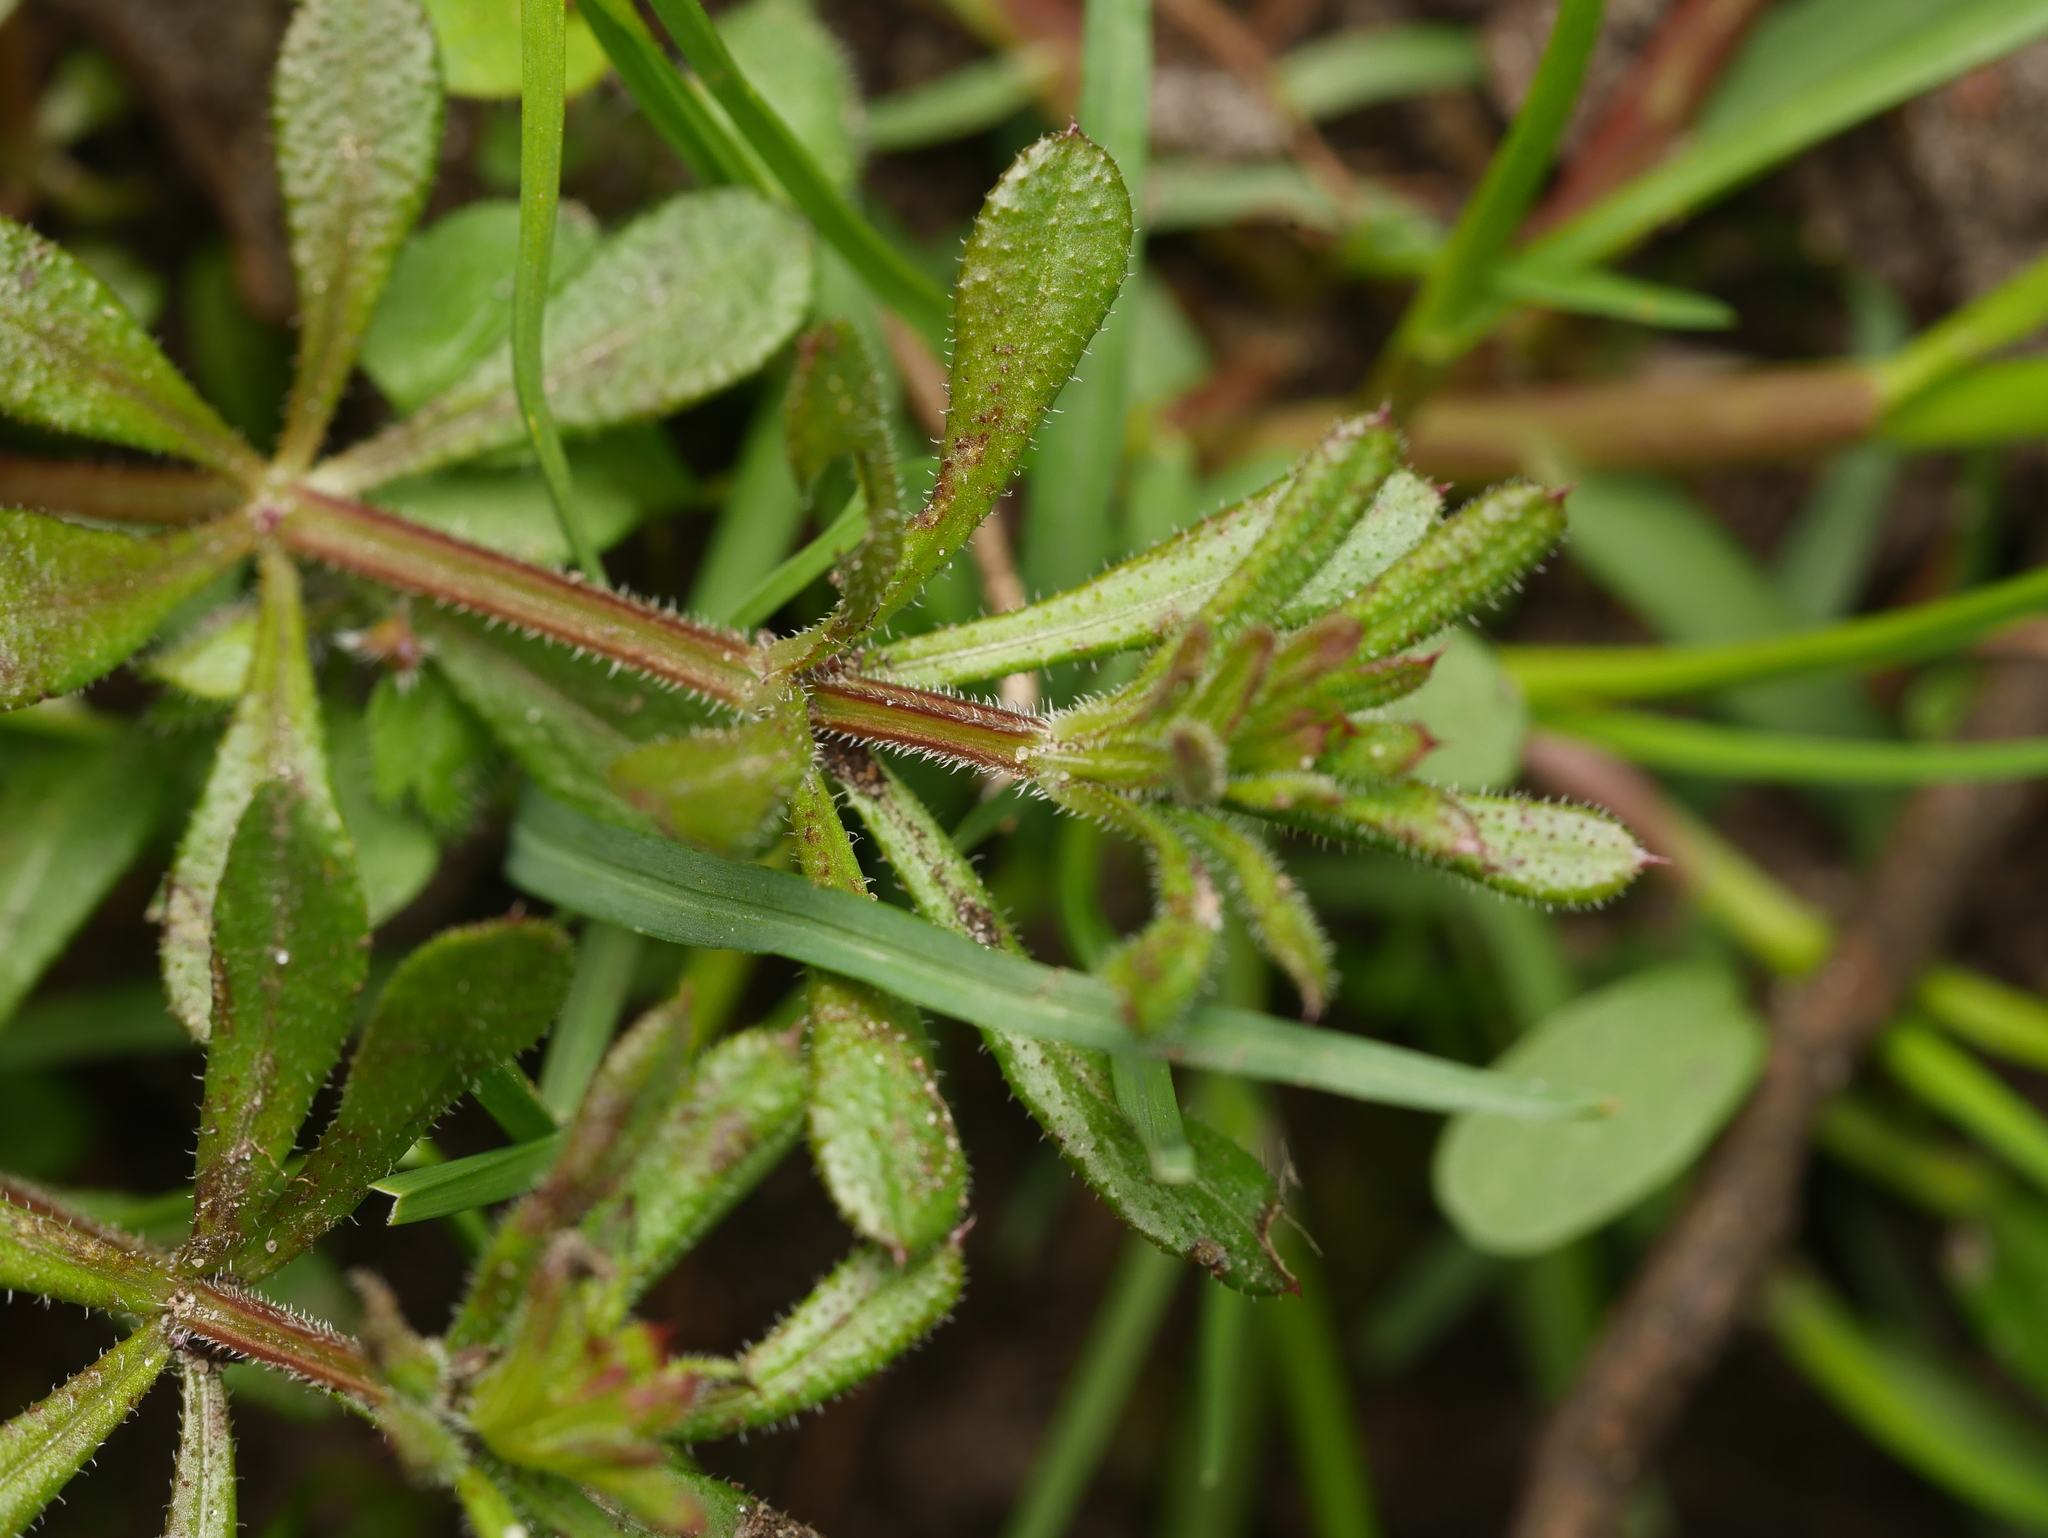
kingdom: Plantae
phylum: Tracheophyta
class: Magnoliopsida
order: Gentianales
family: Rubiaceae
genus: Galium
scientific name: Galium aparine
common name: Cleavers
